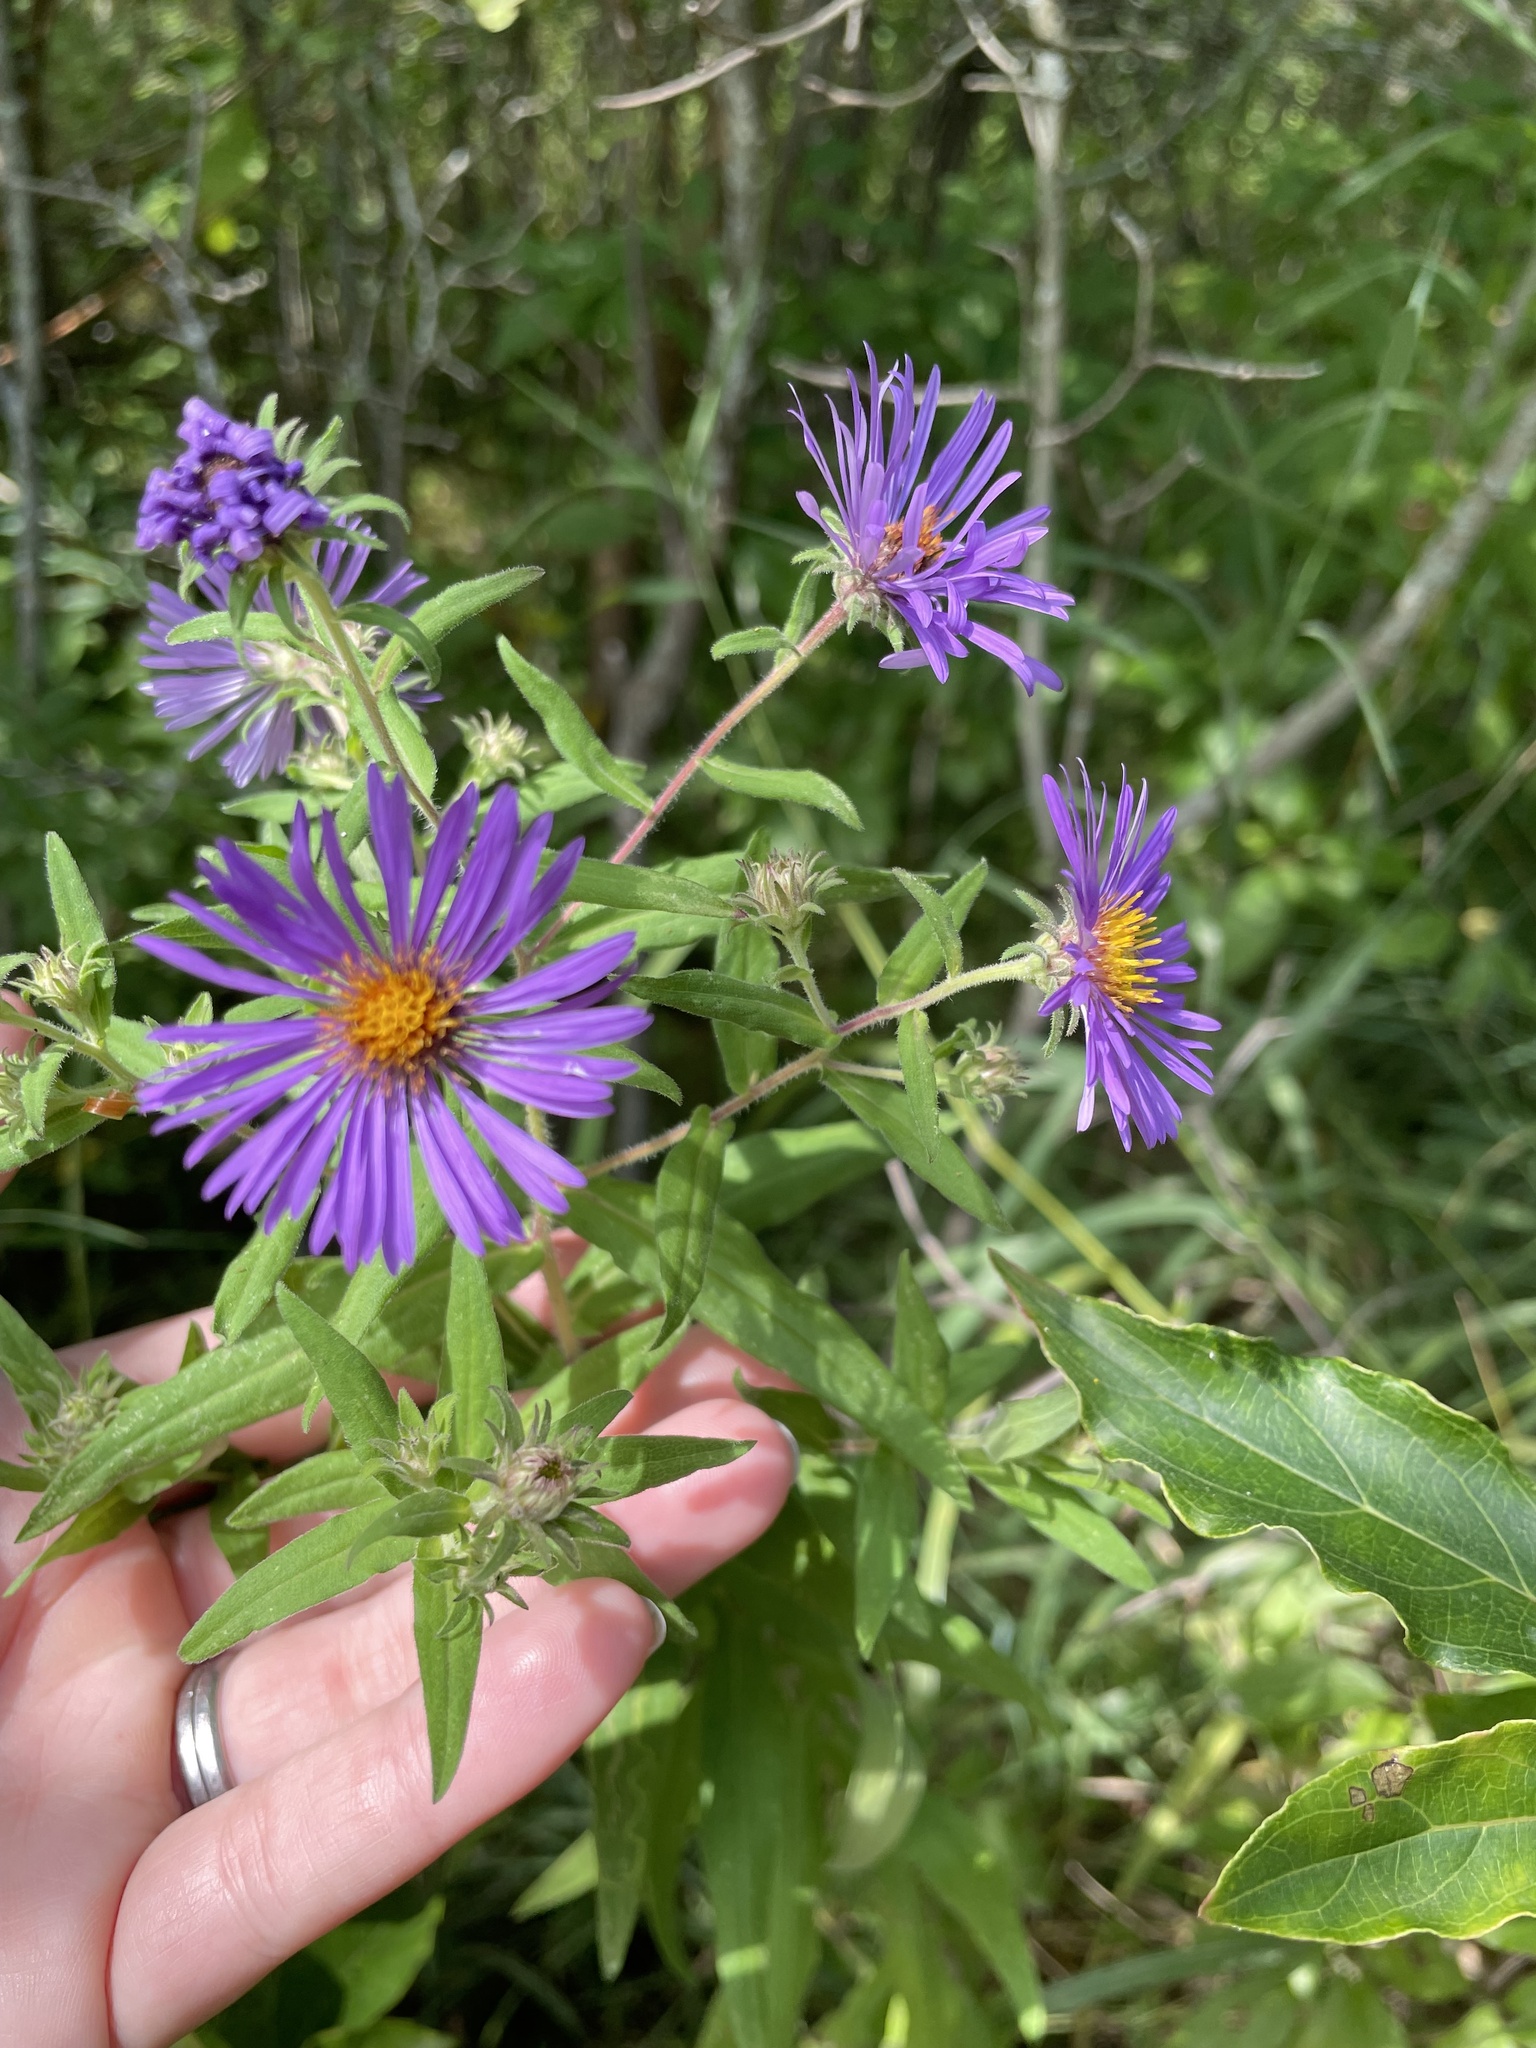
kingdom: Plantae
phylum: Tracheophyta
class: Magnoliopsida
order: Asterales
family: Asteraceae
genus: Symphyotrichum
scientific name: Symphyotrichum novae-angliae
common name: Michaelmas daisy
